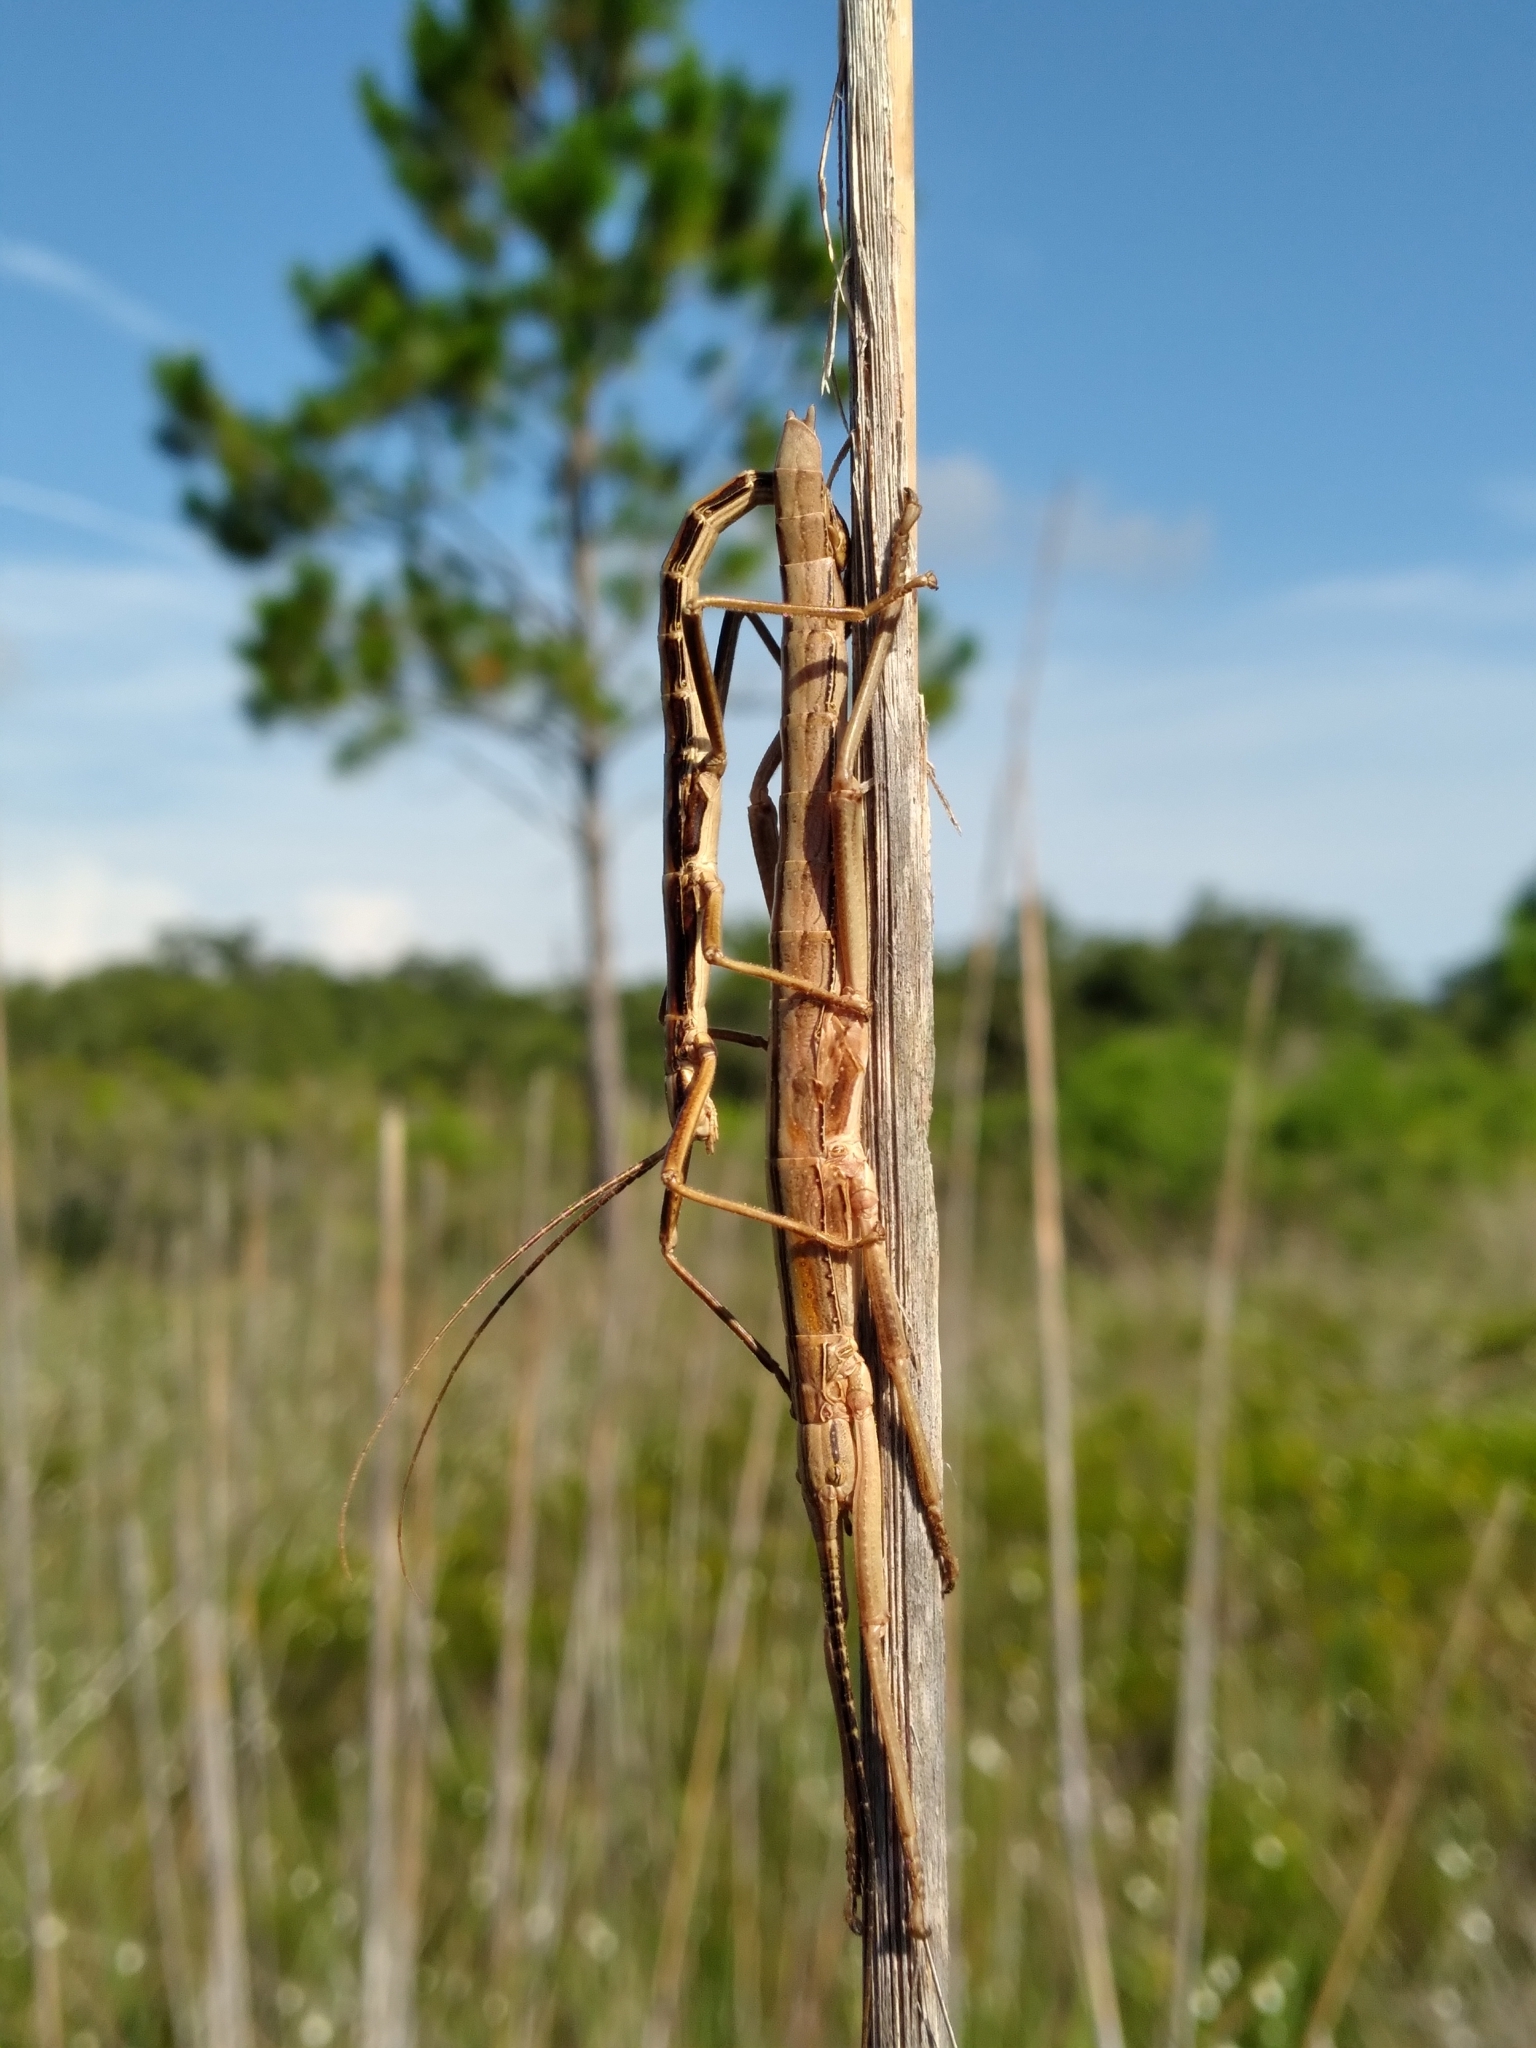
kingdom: Animalia
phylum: Arthropoda
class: Insecta
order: Phasmida
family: Pseudophasmatidae
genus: Anisomorpha
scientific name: Anisomorpha buprestoides
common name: Florida stick insect
